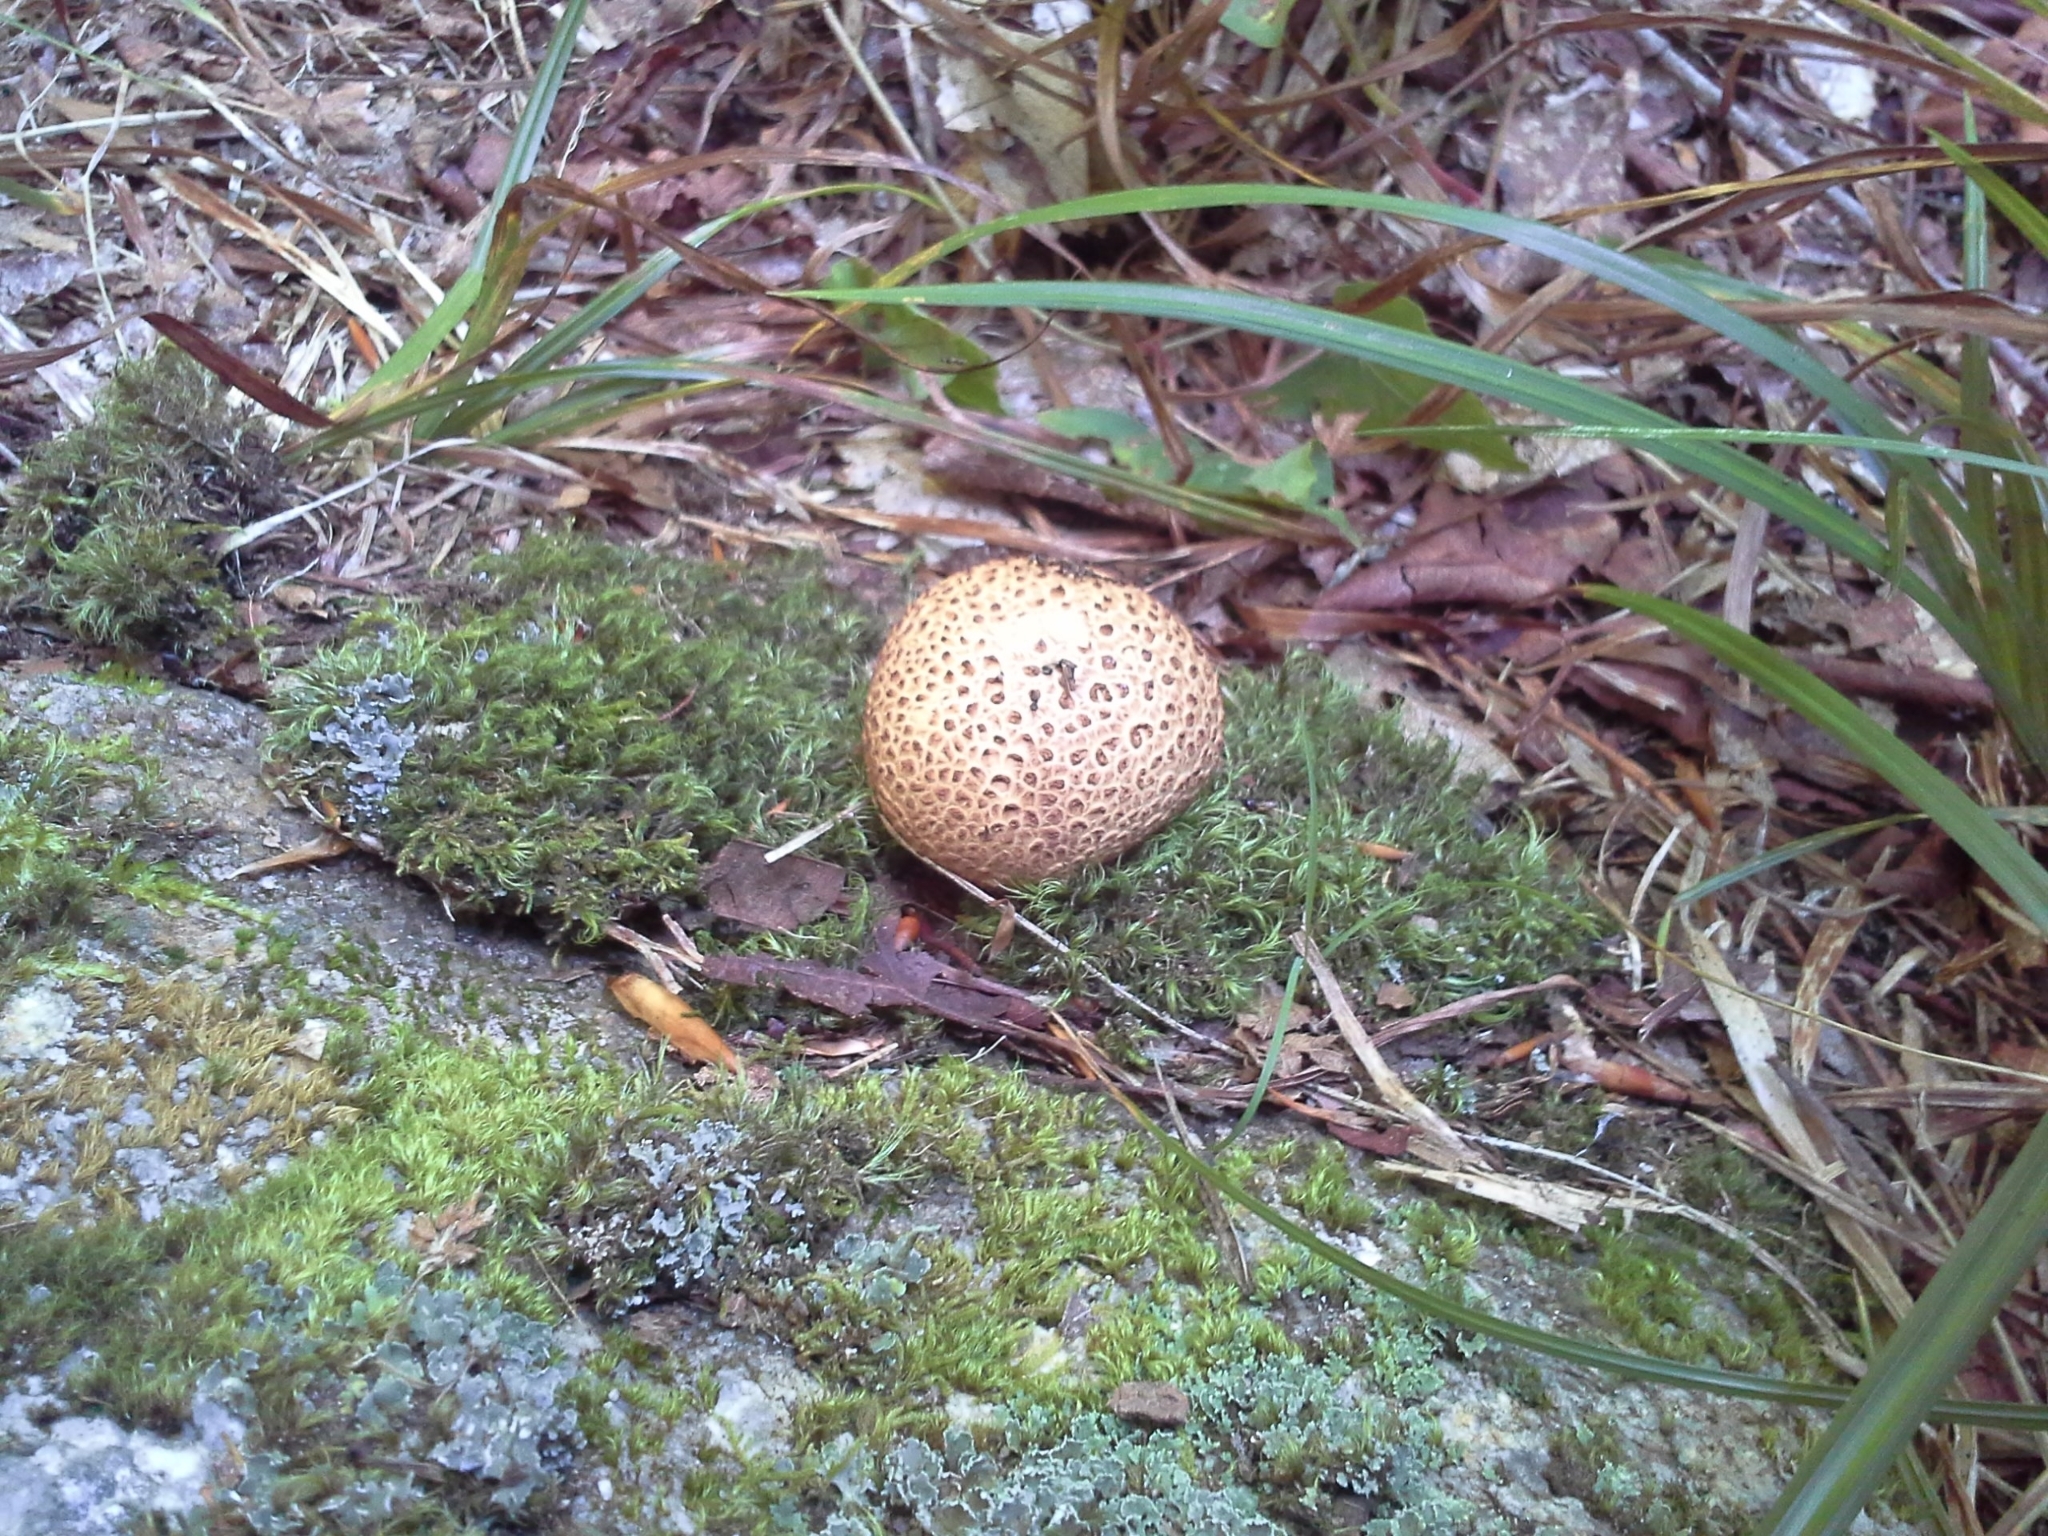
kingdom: Fungi
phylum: Basidiomycota
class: Agaricomycetes
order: Boletales
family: Sclerodermataceae
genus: Scleroderma
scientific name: Scleroderma citrinum
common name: Common earthball
